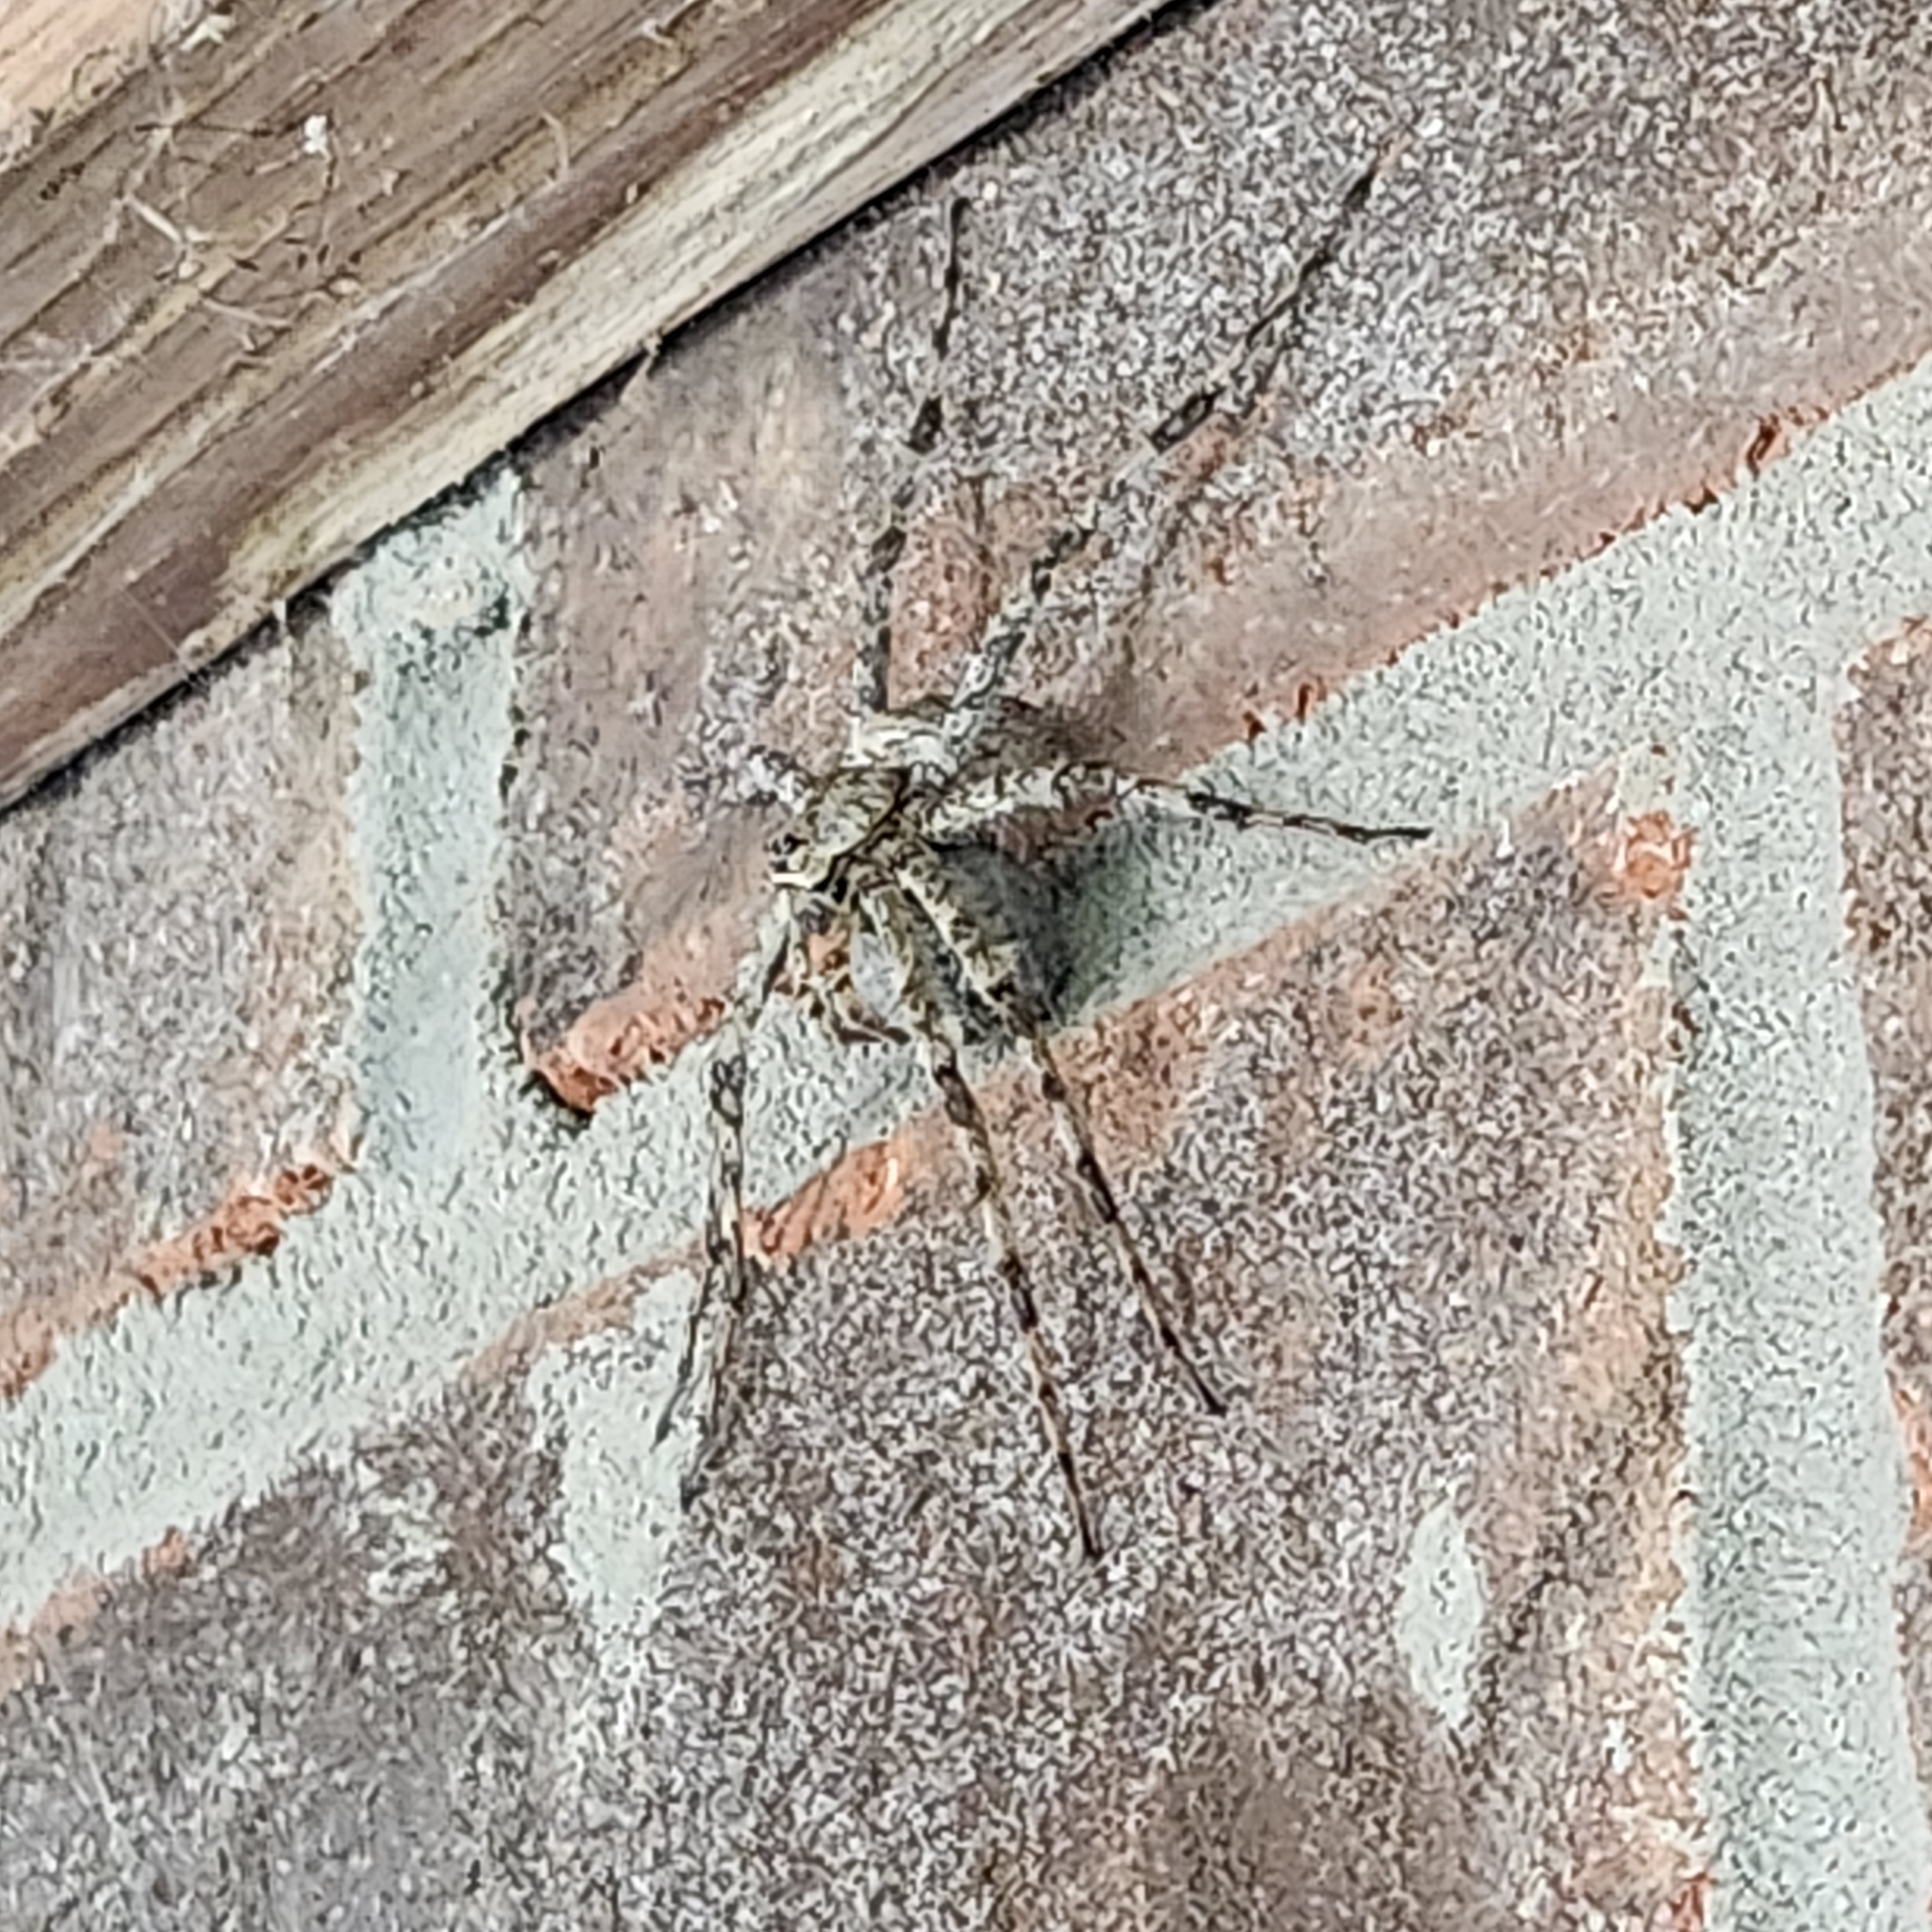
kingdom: Animalia
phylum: Arthropoda
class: Arachnida
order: Araneae
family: Pisauridae
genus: Dolomedes
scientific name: Dolomedes albineus
